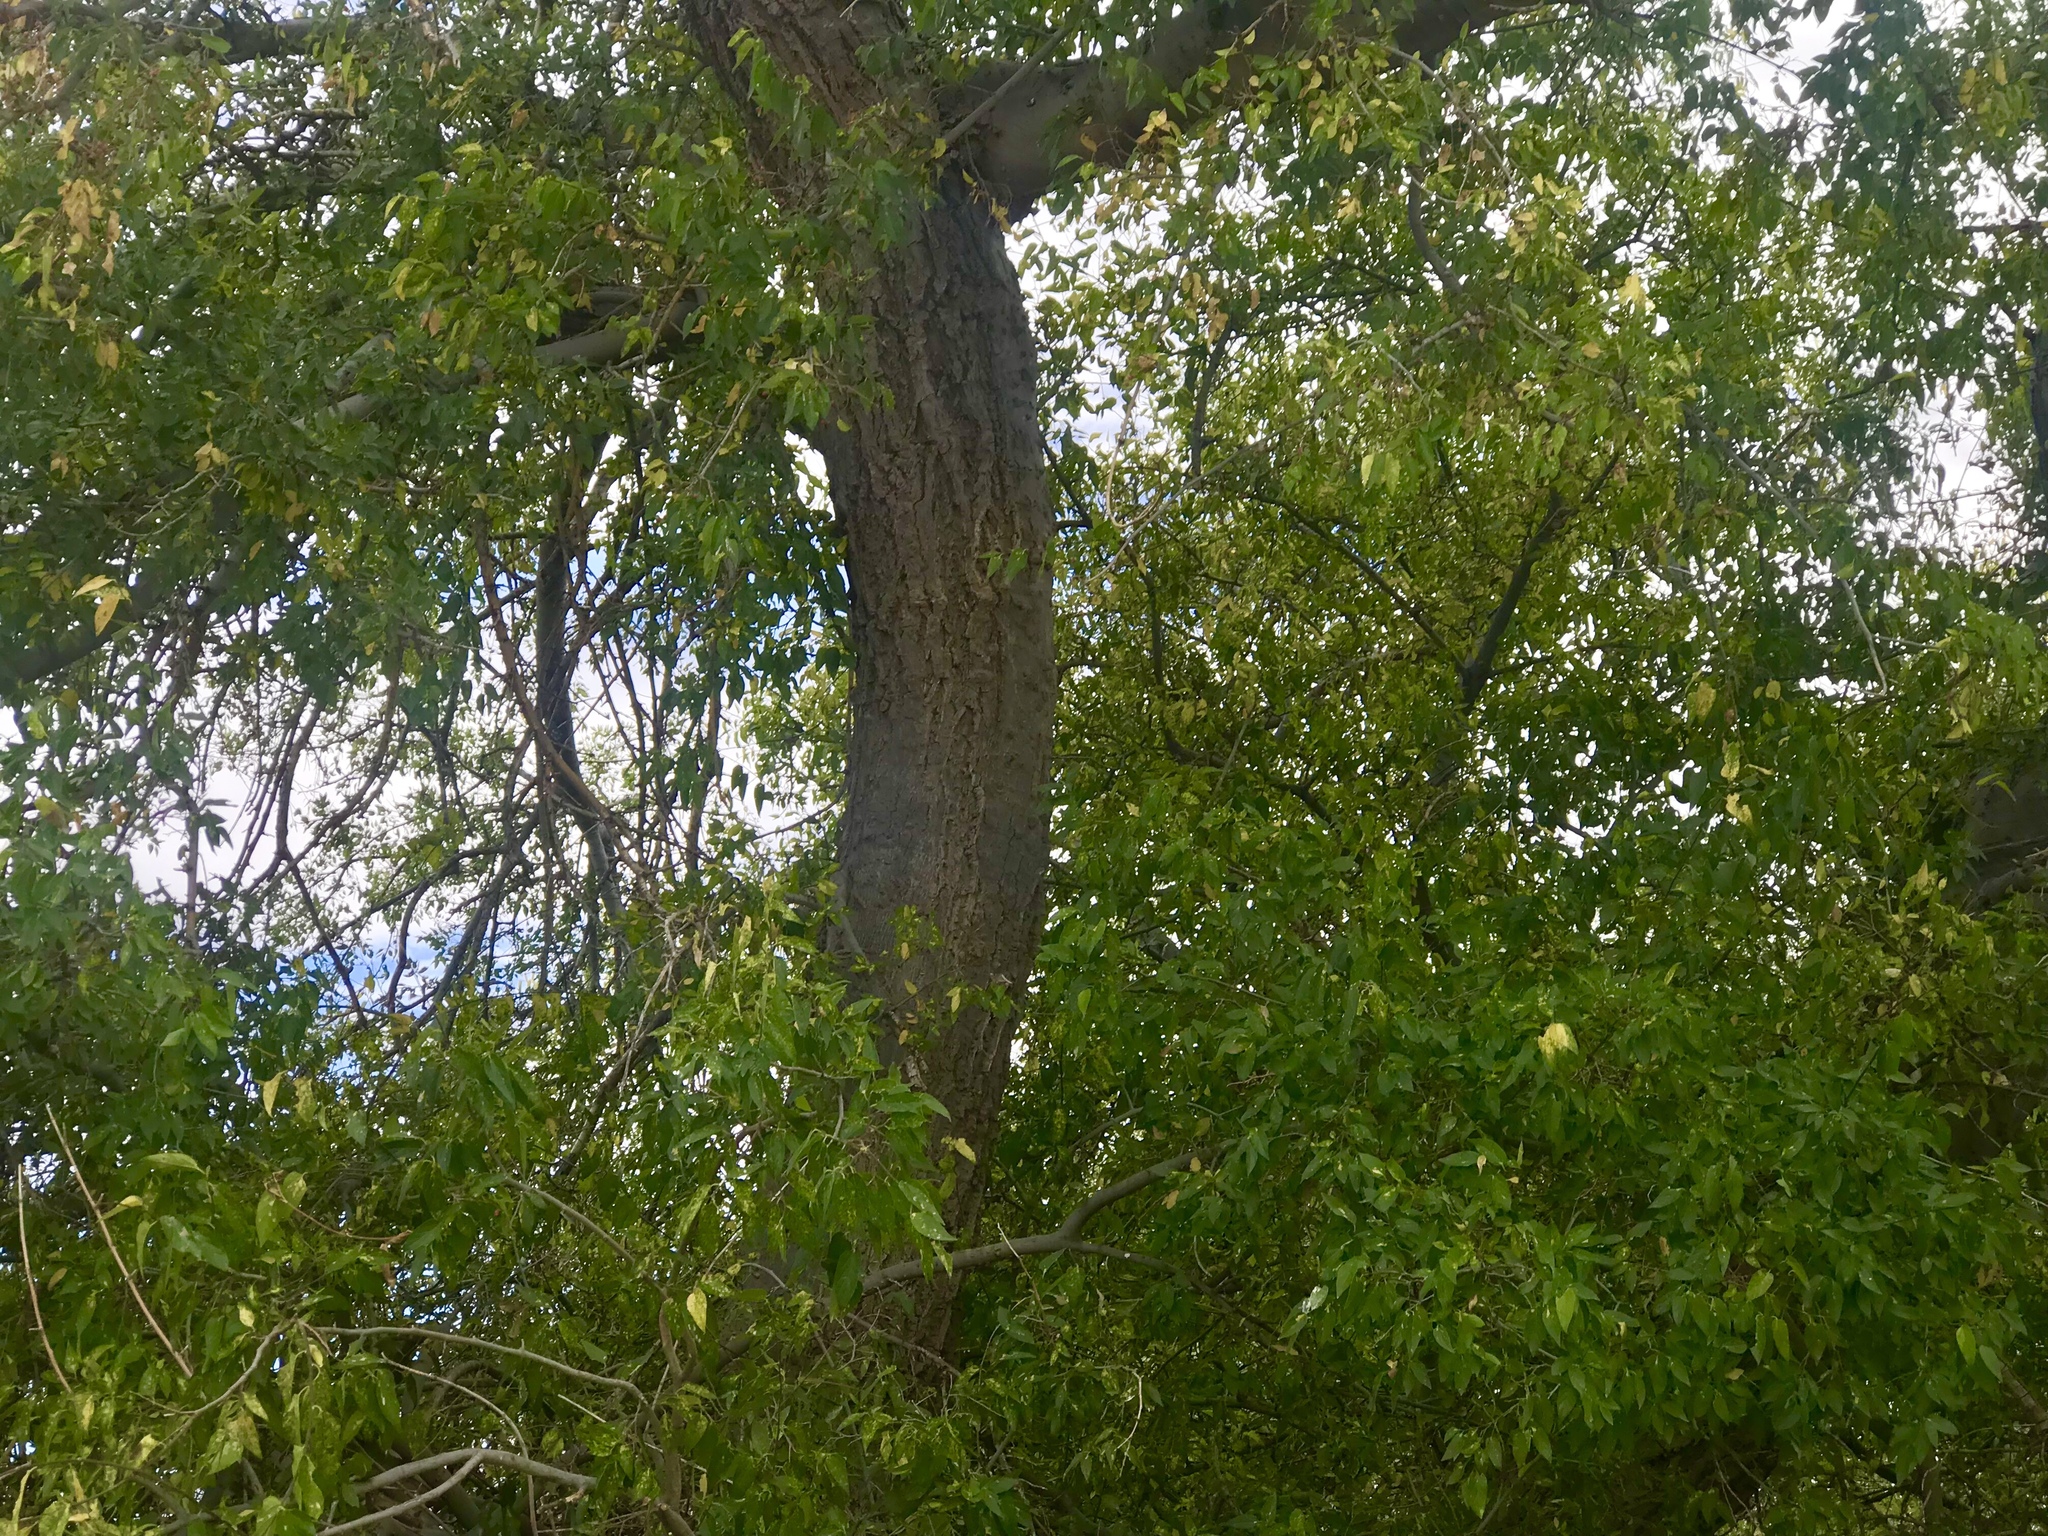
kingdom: Plantae
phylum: Tracheophyta
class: Magnoliopsida
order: Rosales
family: Cannabaceae
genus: Celtis
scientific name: Celtis reticulata
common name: Netleaf hackberry
